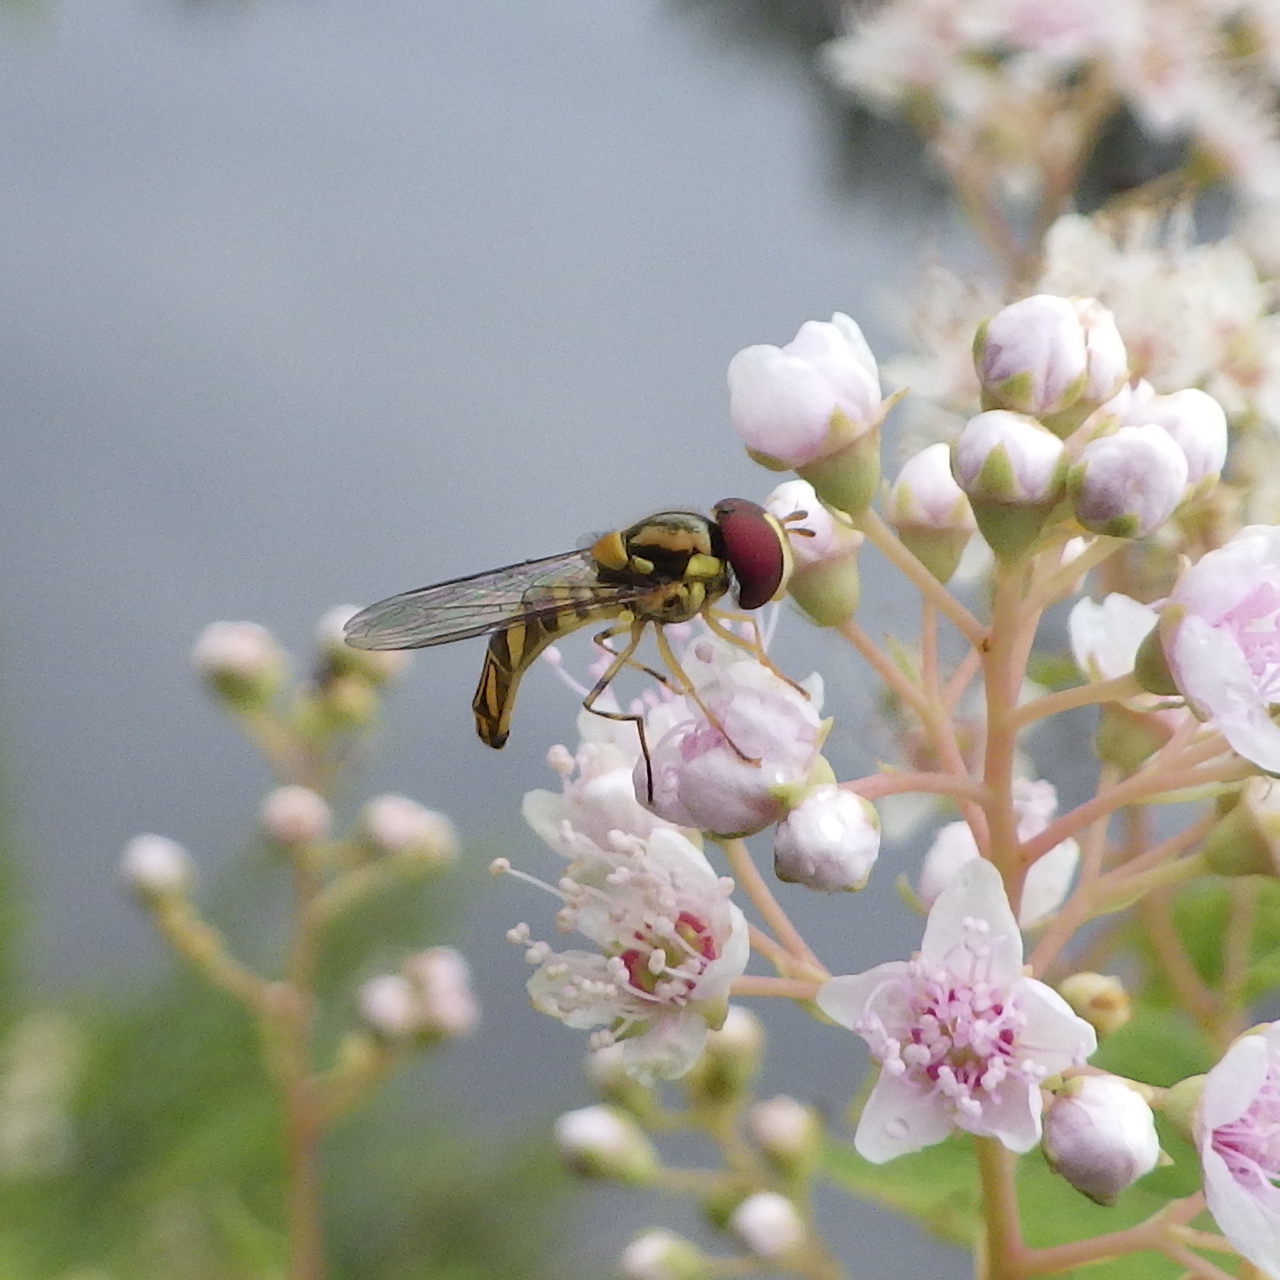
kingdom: Animalia
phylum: Arthropoda
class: Insecta
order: Diptera
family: Syrphidae
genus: Allograpta
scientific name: Allograpta obliqua
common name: Common oblique syrphid
